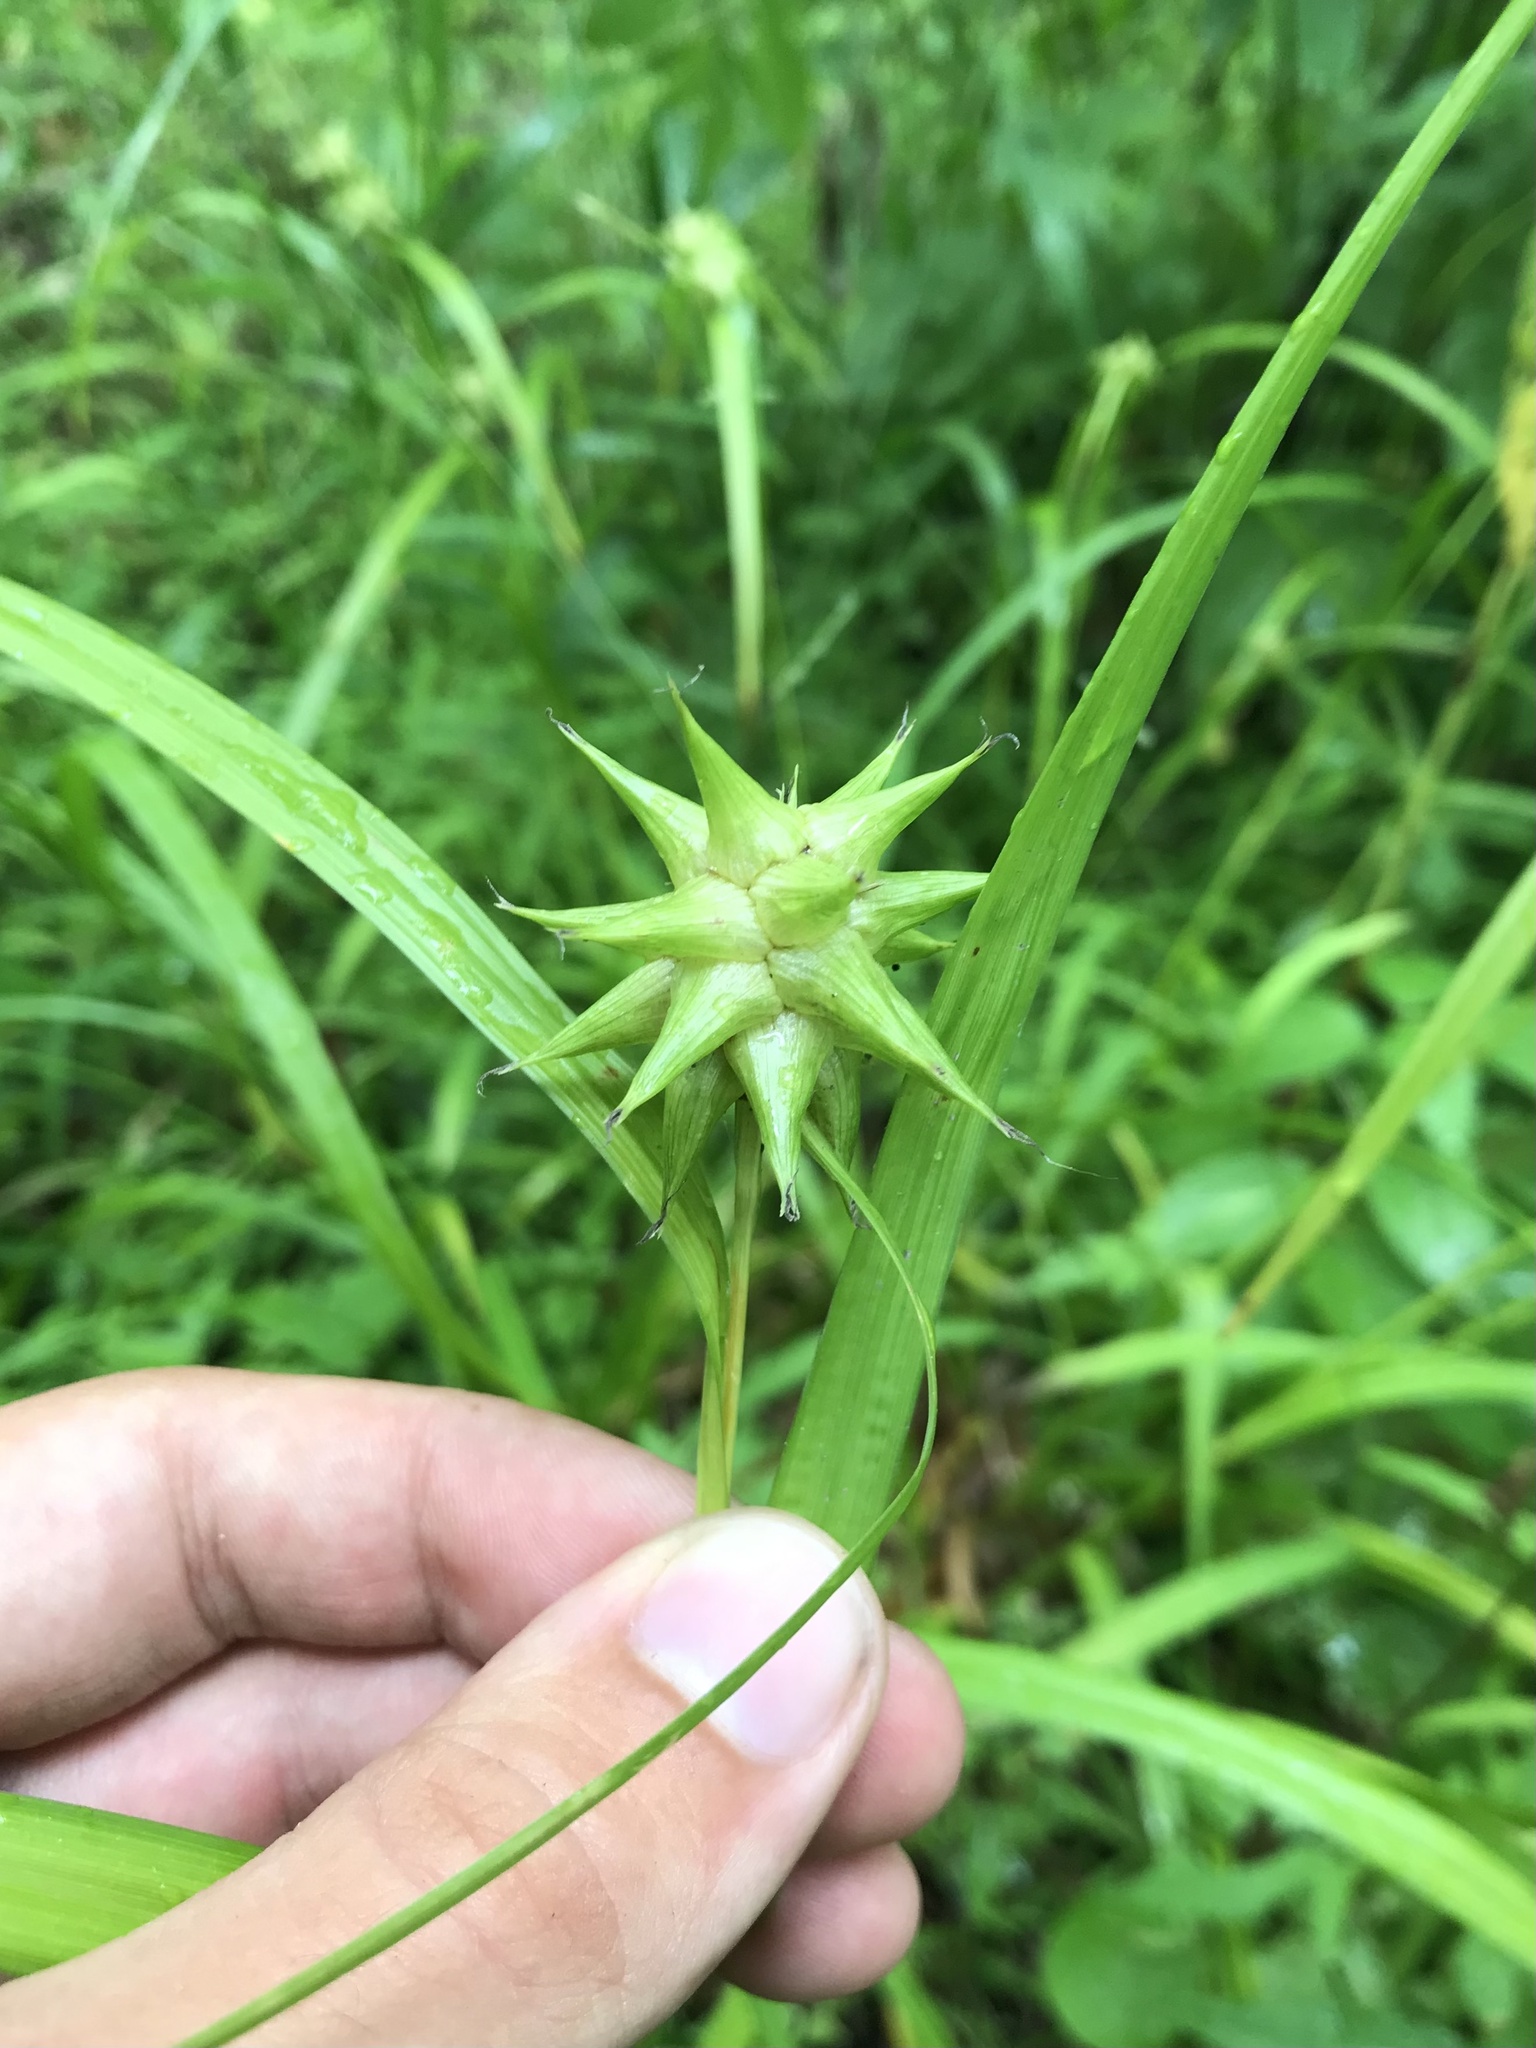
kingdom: Plantae
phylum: Tracheophyta
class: Liliopsida
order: Poales
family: Cyperaceae
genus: Carex
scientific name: Carex grayi
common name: Asa gray's sedge
